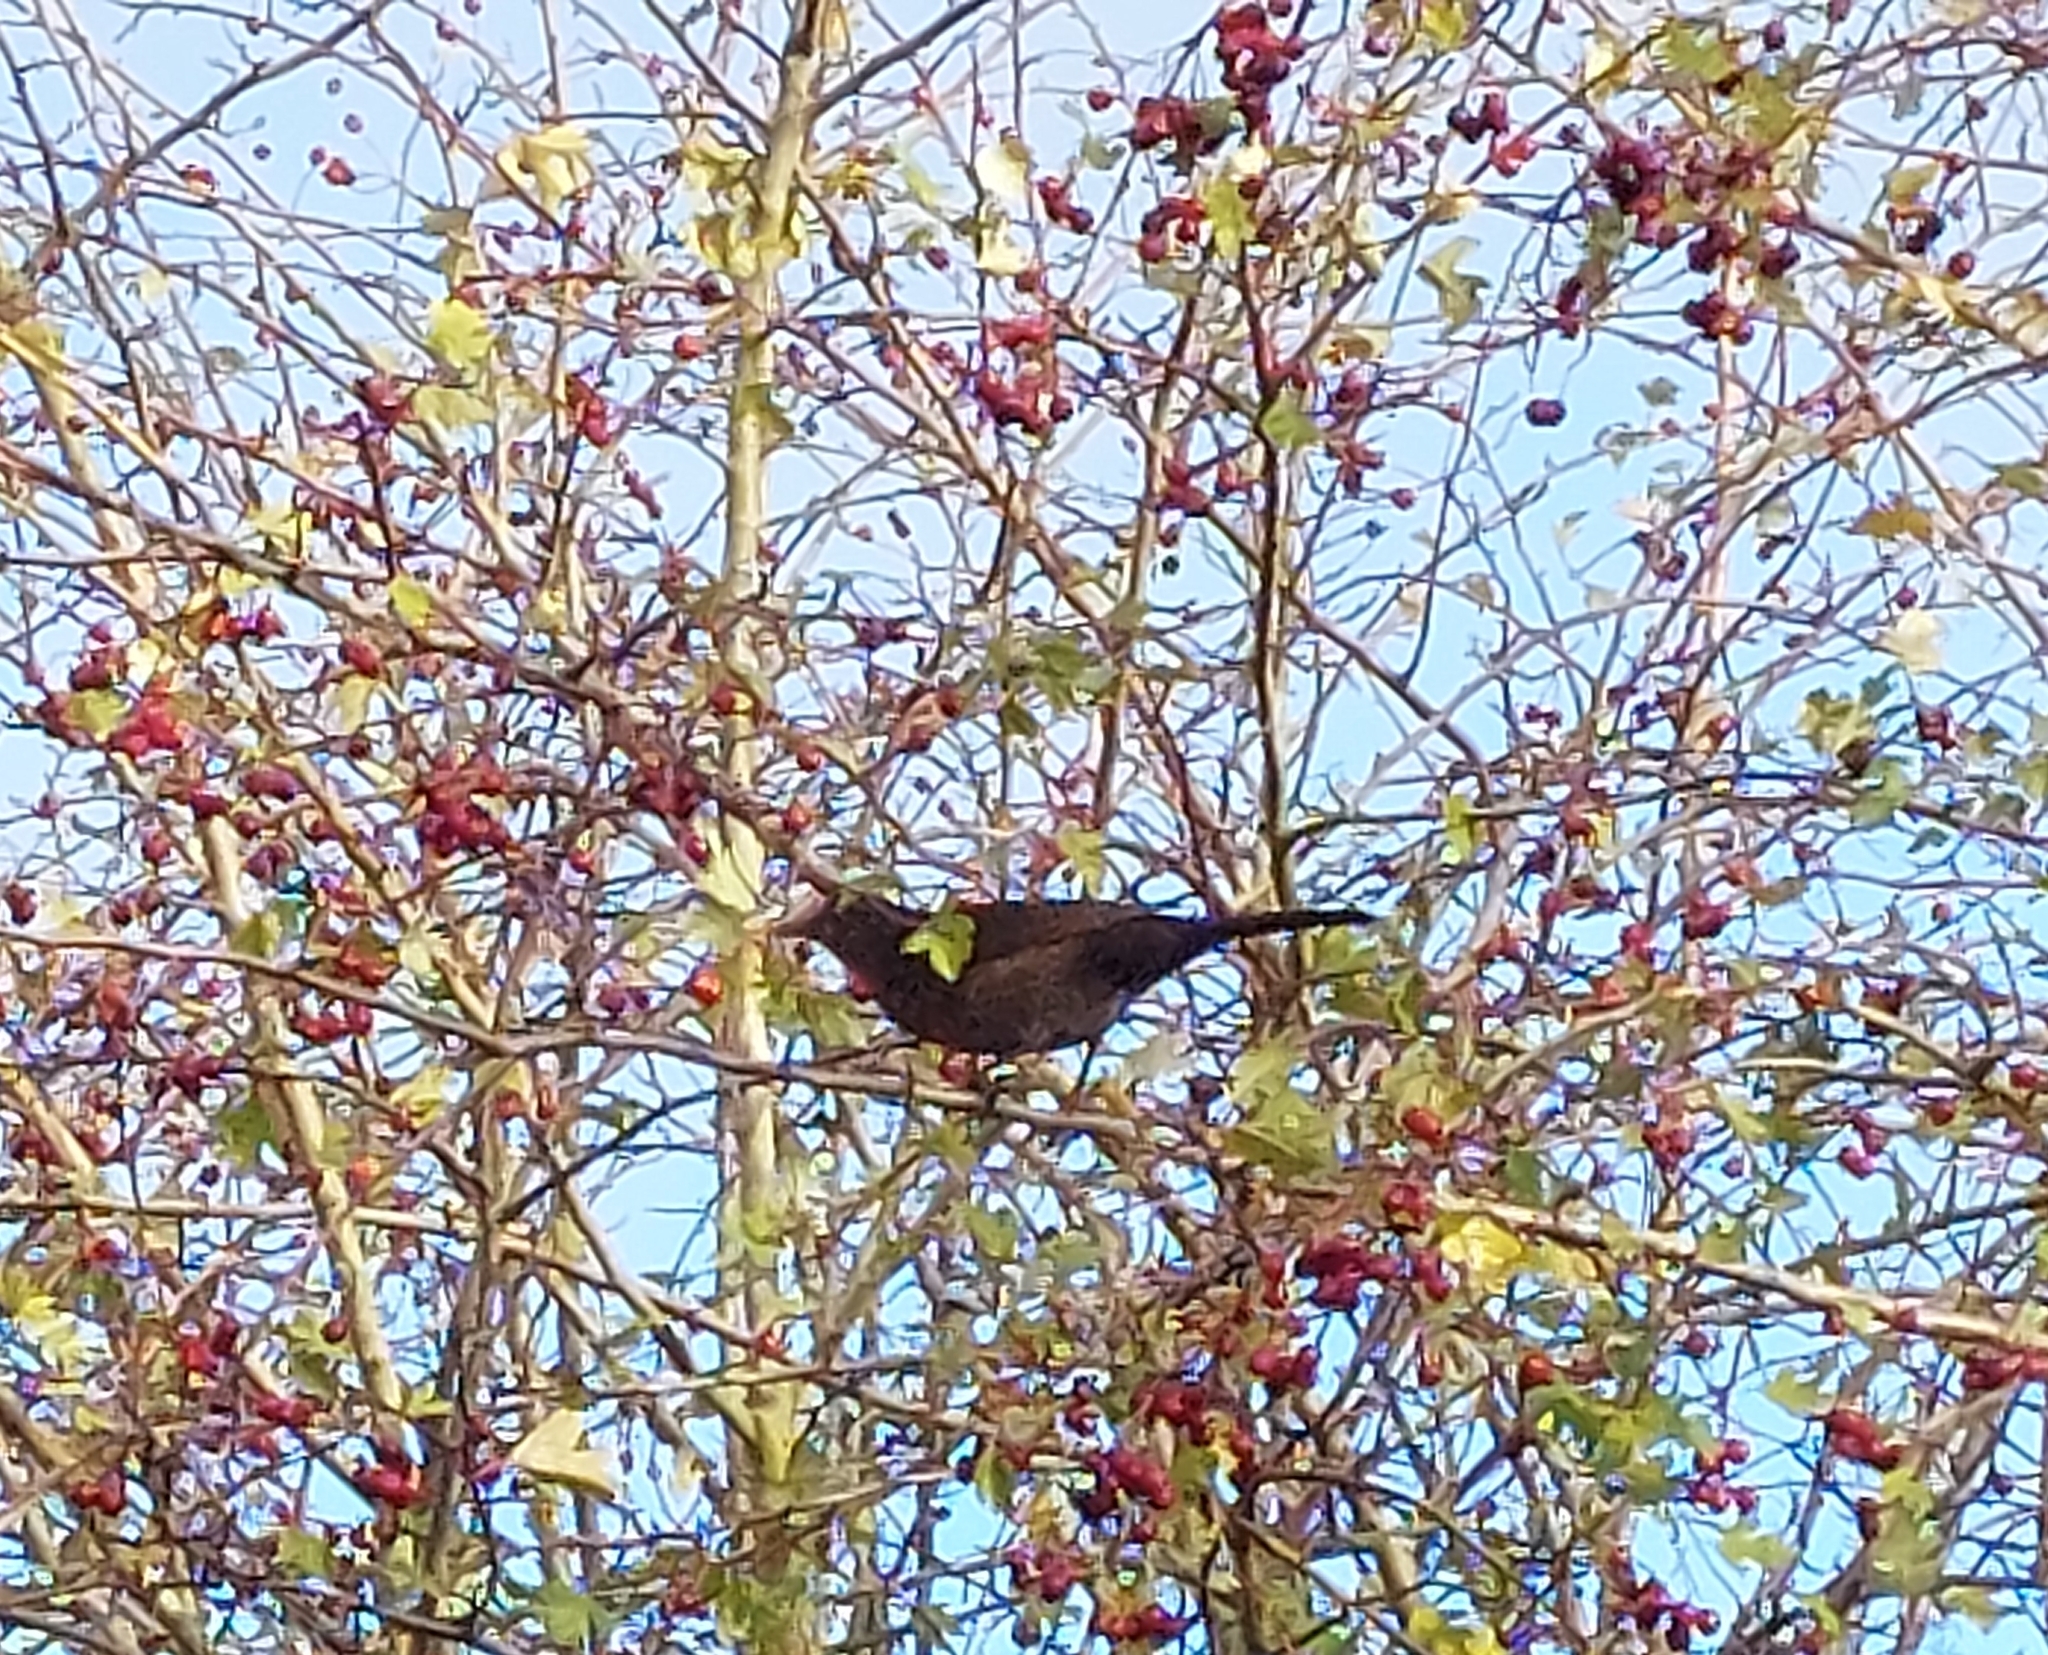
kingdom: Animalia
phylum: Chordata
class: Aves
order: Passeriformes
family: Turdidae
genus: Turdus
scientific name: Turdus merula
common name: Common blackbird
